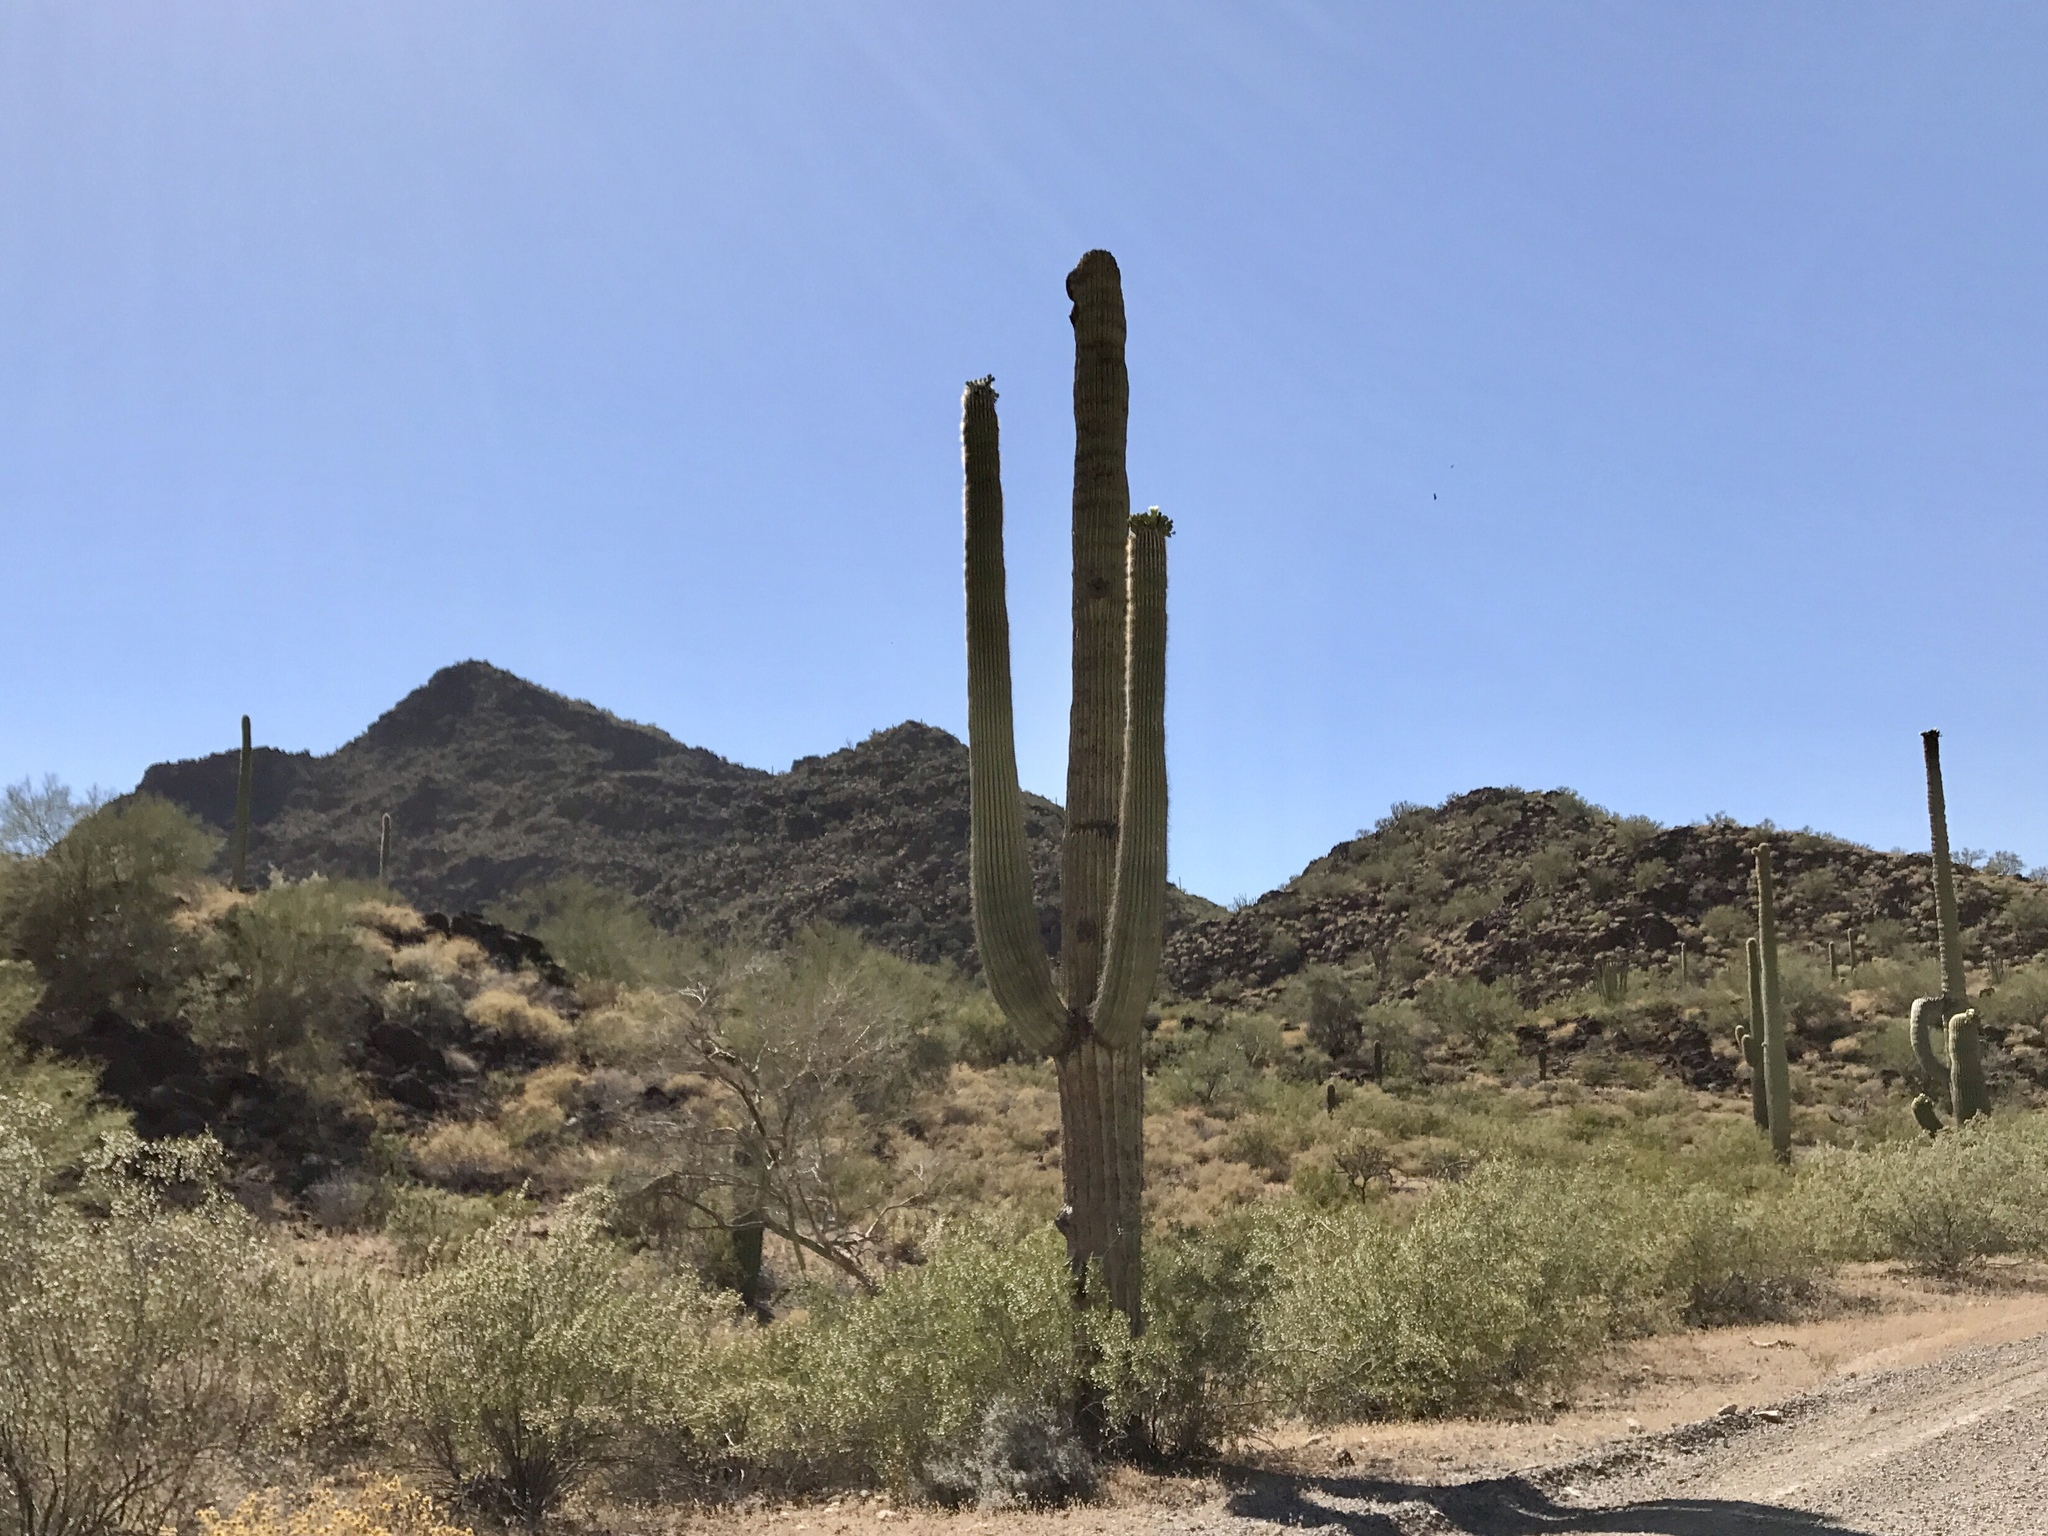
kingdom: Plantae
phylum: Tracheophyta
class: Magnoliopsida
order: Caryophyllales
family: Cactaceae
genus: Carnegiea
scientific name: Carnegiea gigantea
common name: Saguaro
